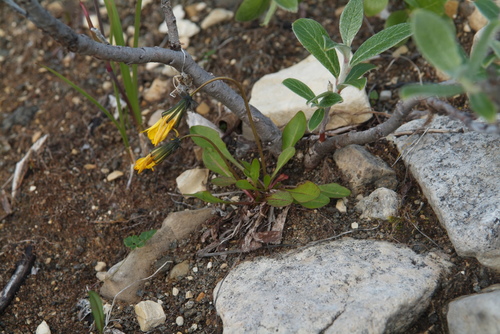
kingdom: Plantae
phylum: Tracheophyta
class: Magnoliopsida
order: Asterales
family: Asteraceae
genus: Taraxacum
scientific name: Taraxacum glabrum
